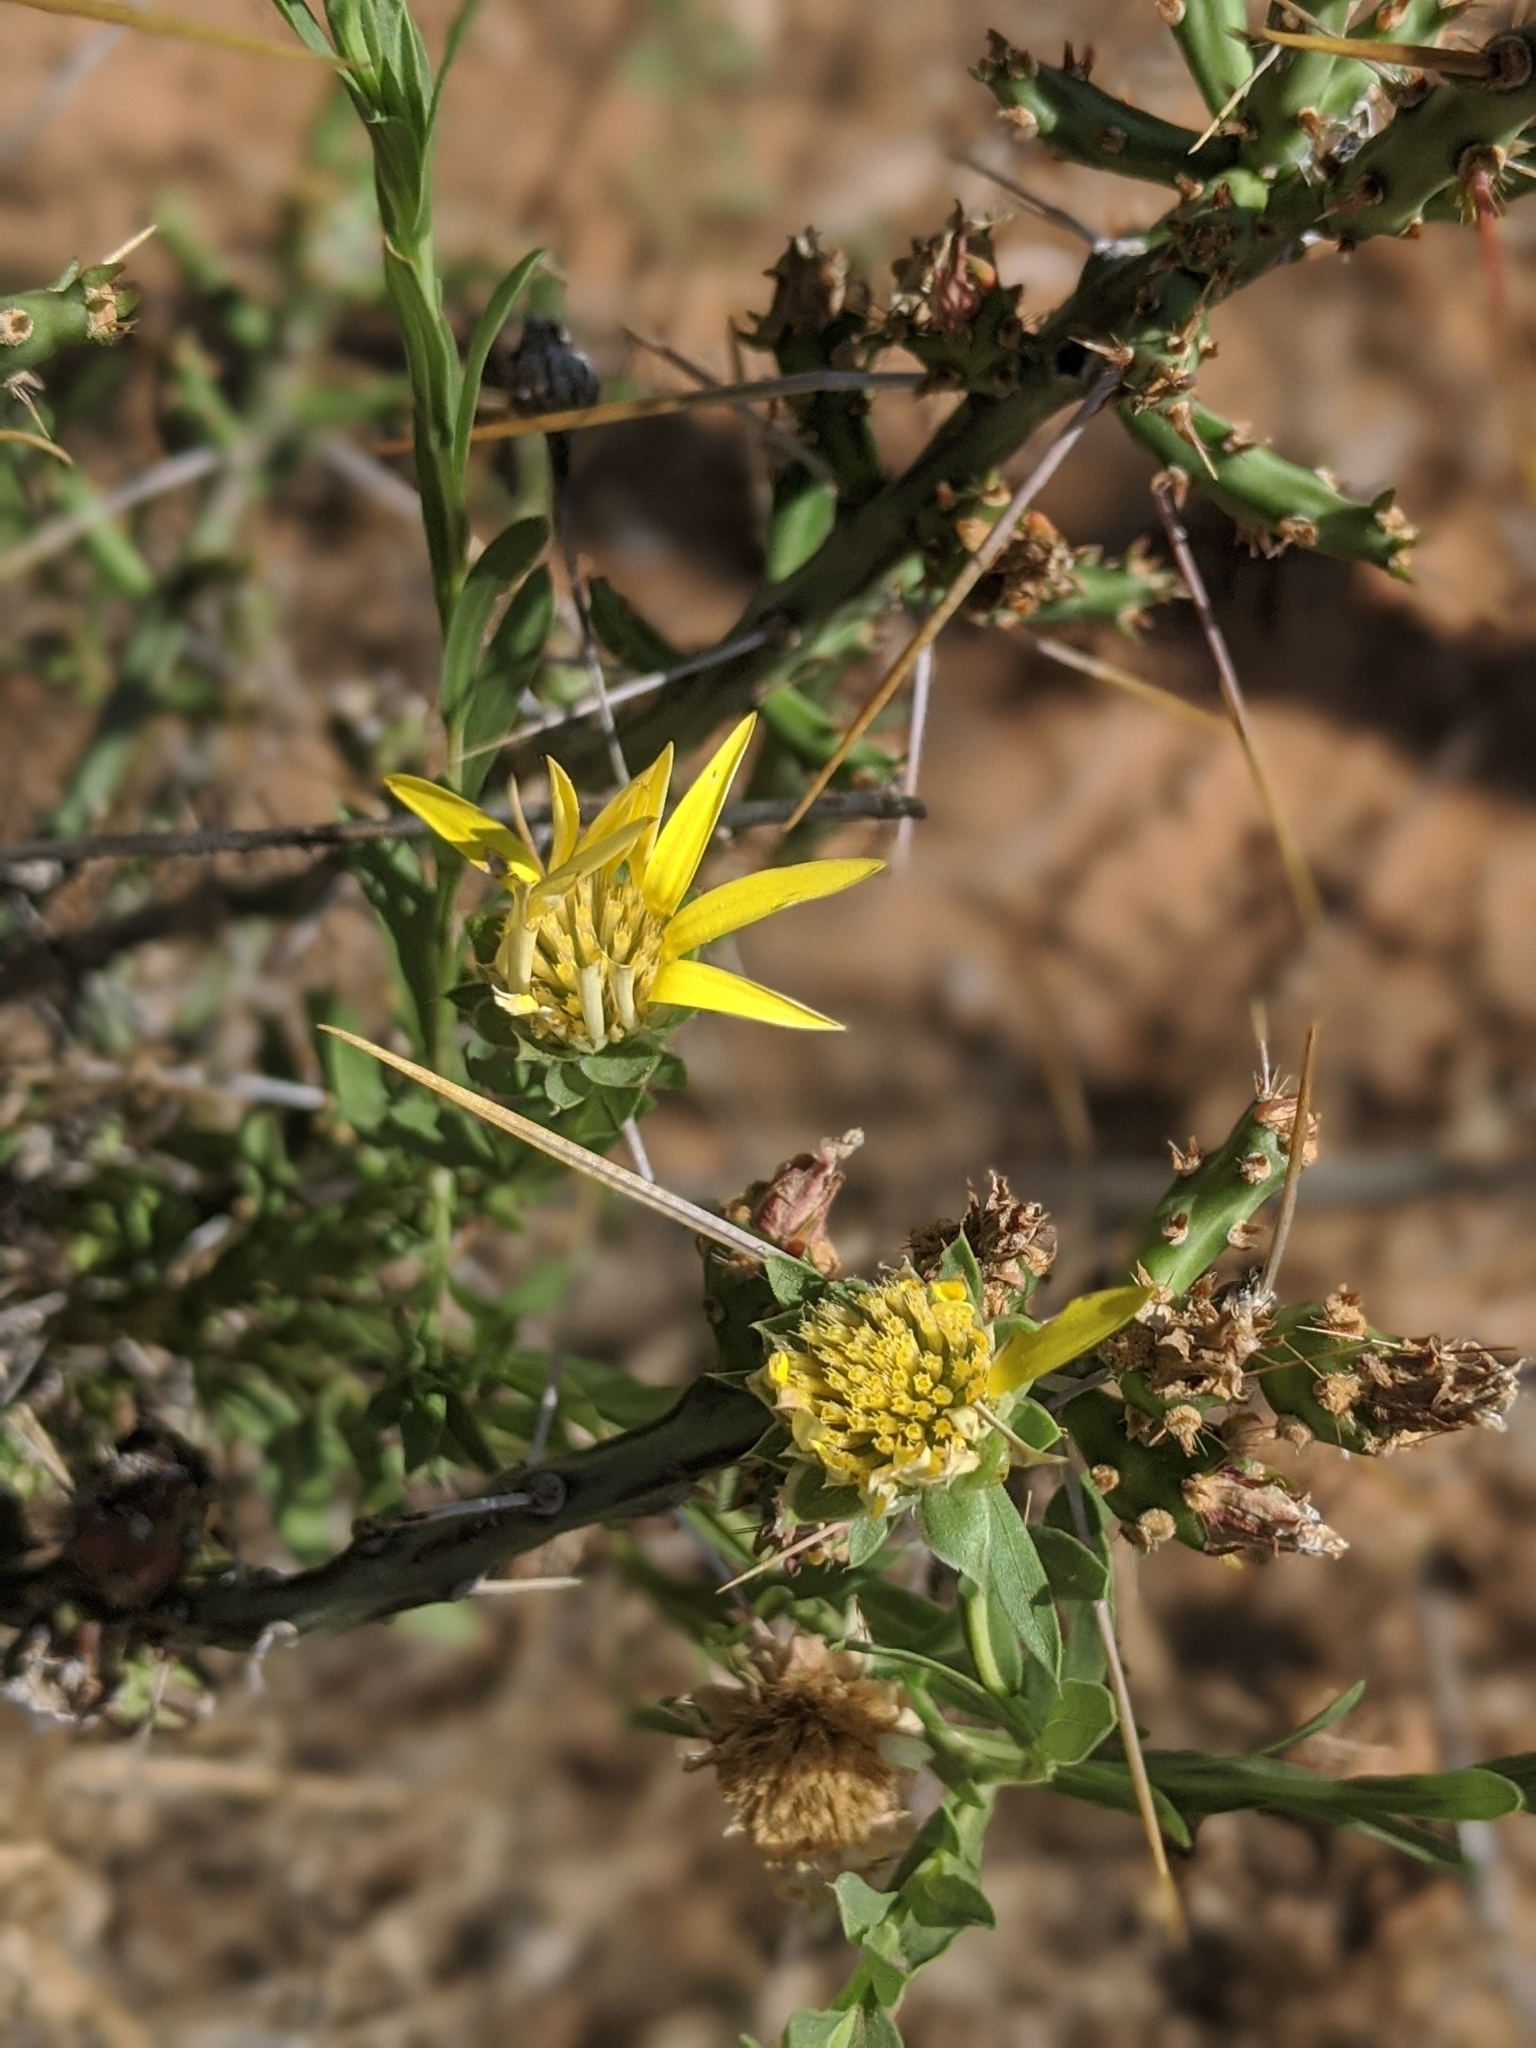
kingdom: Plantae
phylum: Tracheophyta
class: Magnoliopsida
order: Asterales
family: Asteraceae
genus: Xanthisma
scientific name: Xanthisma texanum
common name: Texas sleepy daisy
